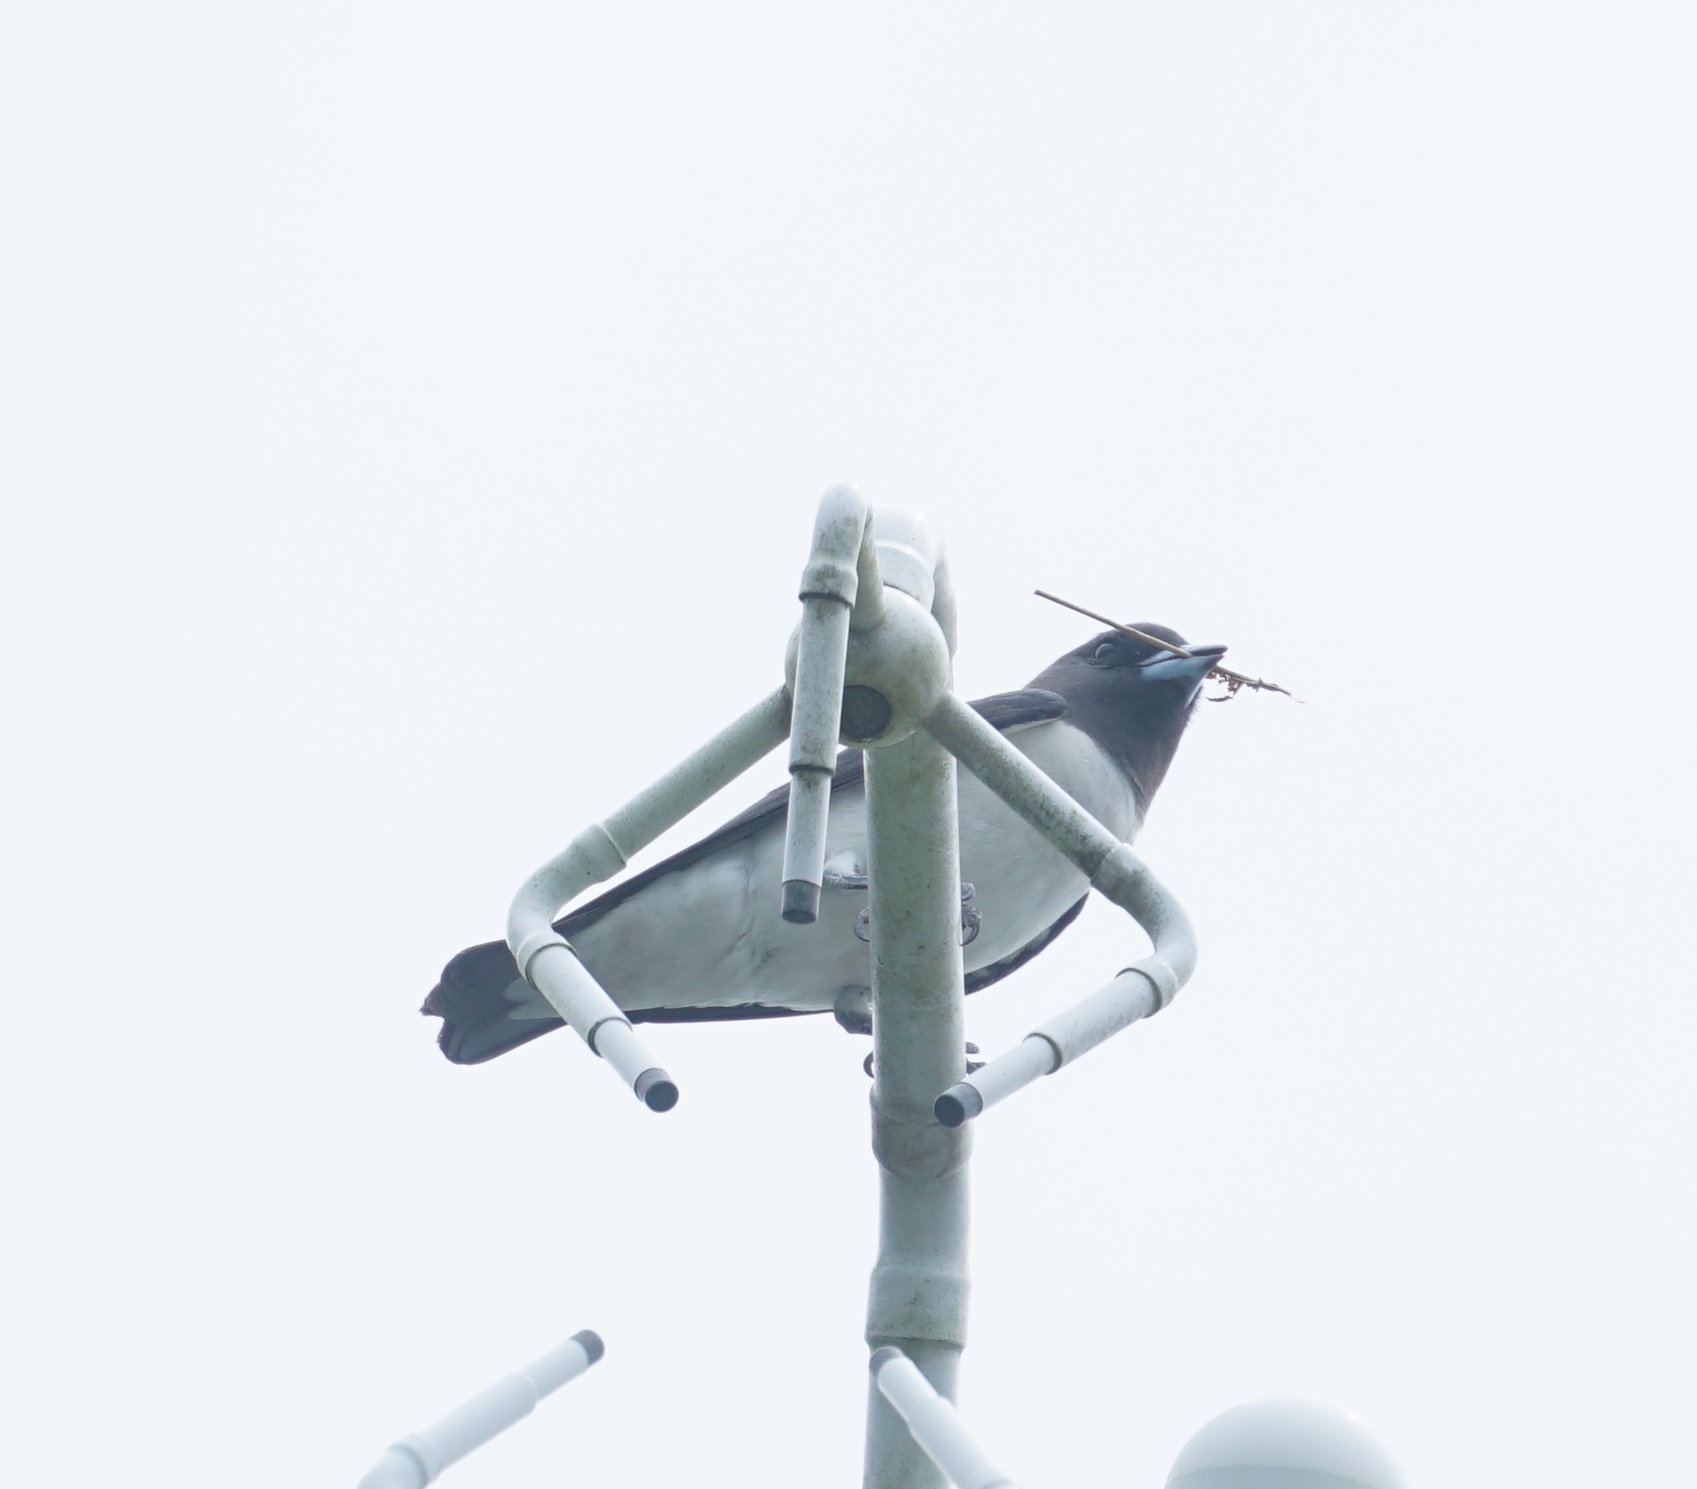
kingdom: Animalia
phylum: Chordata
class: Aves
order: Passeriformes
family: Artamidae
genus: Artamus
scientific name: Artamus leucoryn
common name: White-breasted woodswallow
